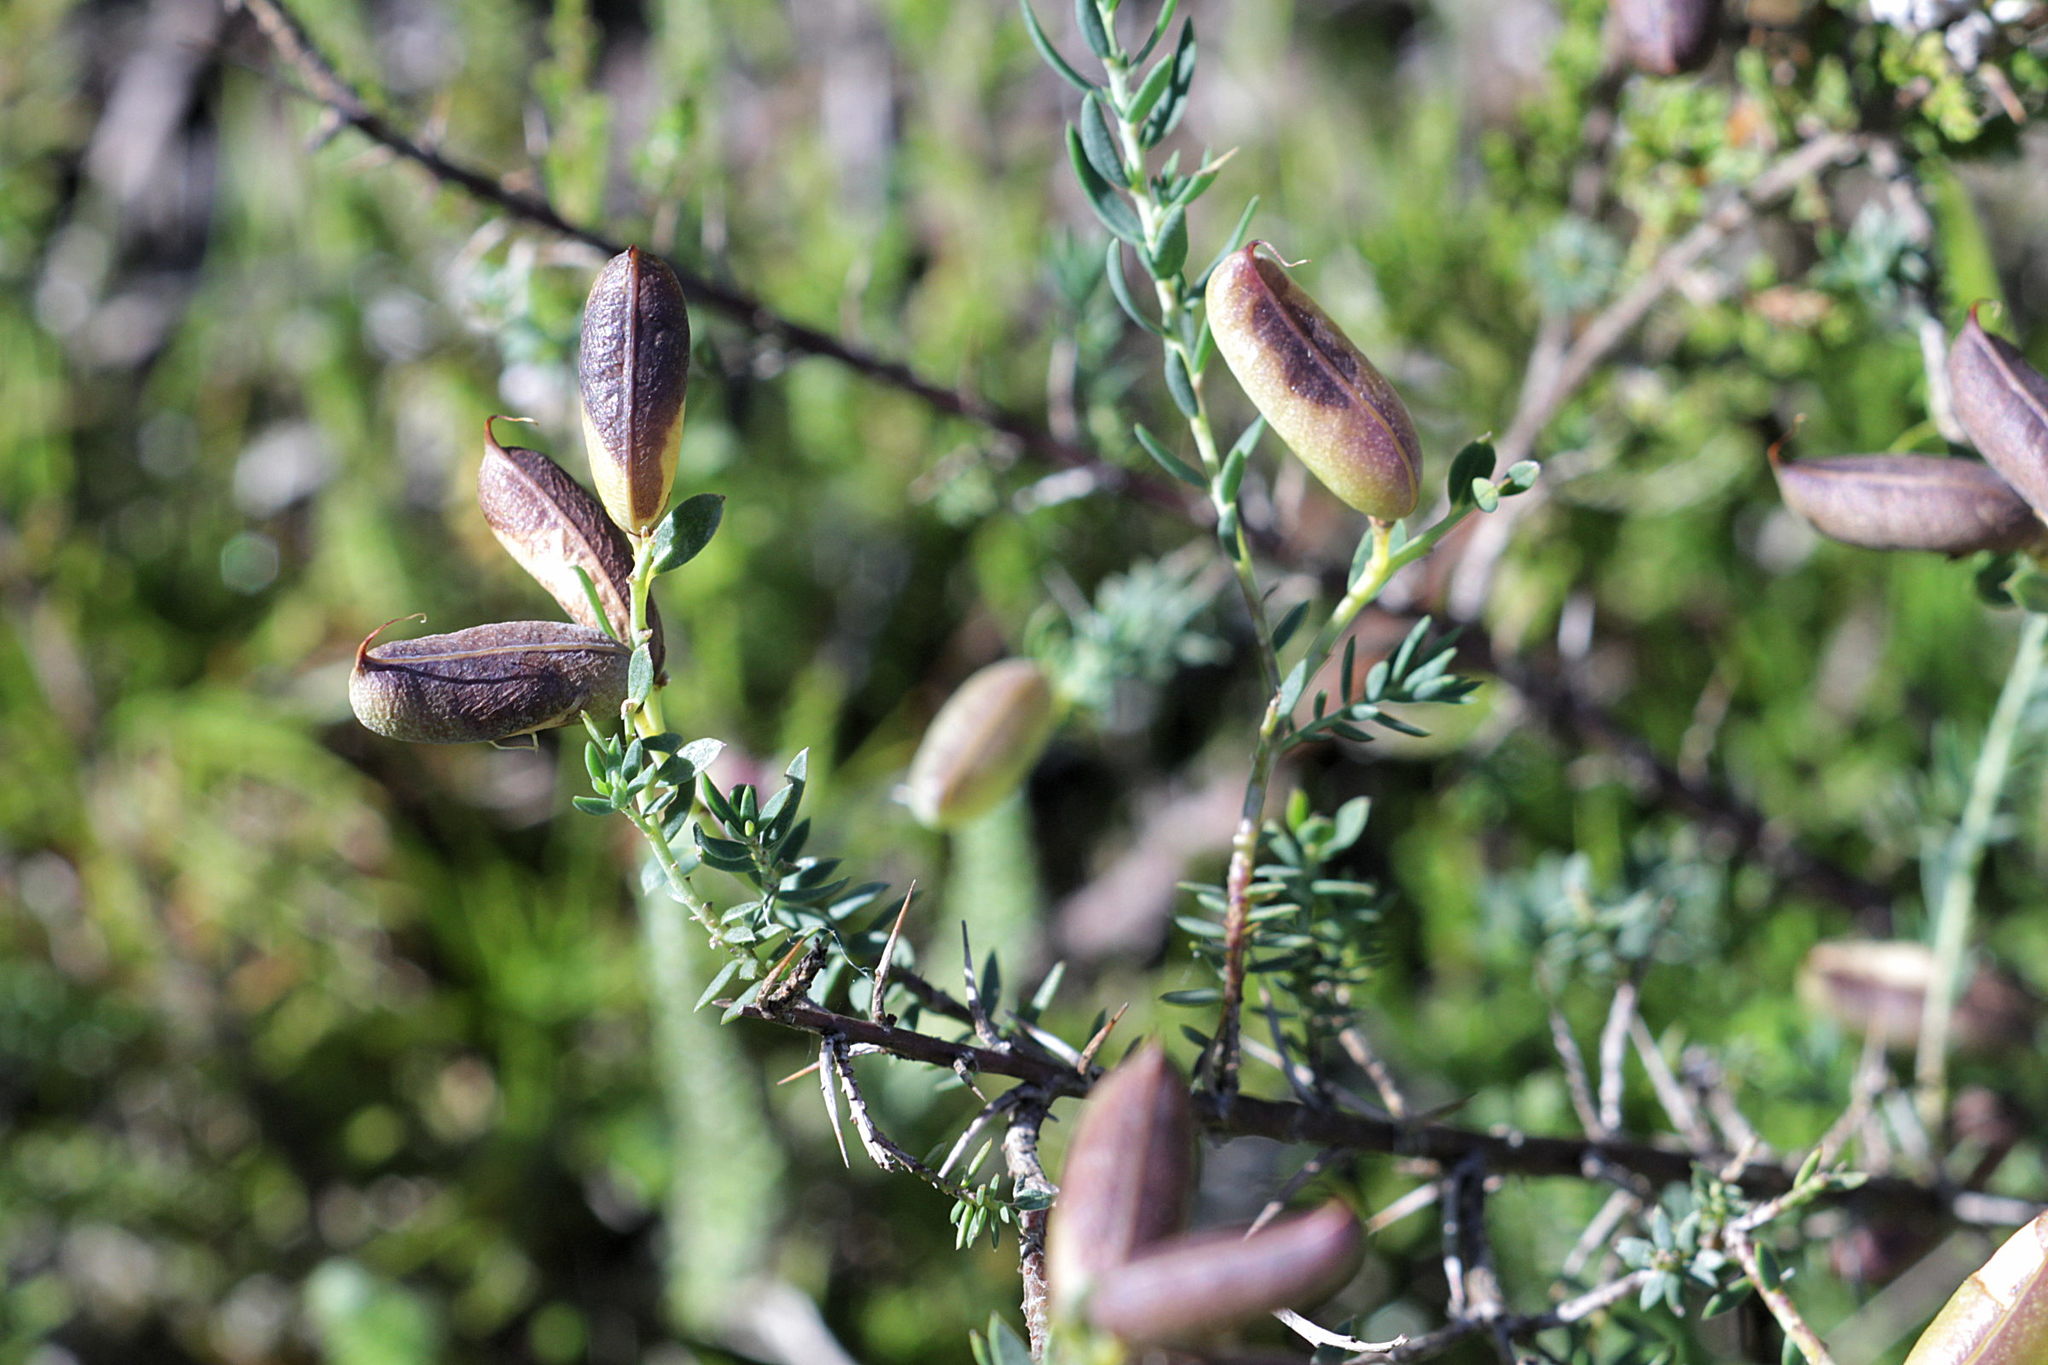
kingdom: Plantae
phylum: Tracheophyta
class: Magnoliopsida
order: Fabales
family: Fabaceae
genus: Genista
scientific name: Genista anglica
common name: Petty whin
